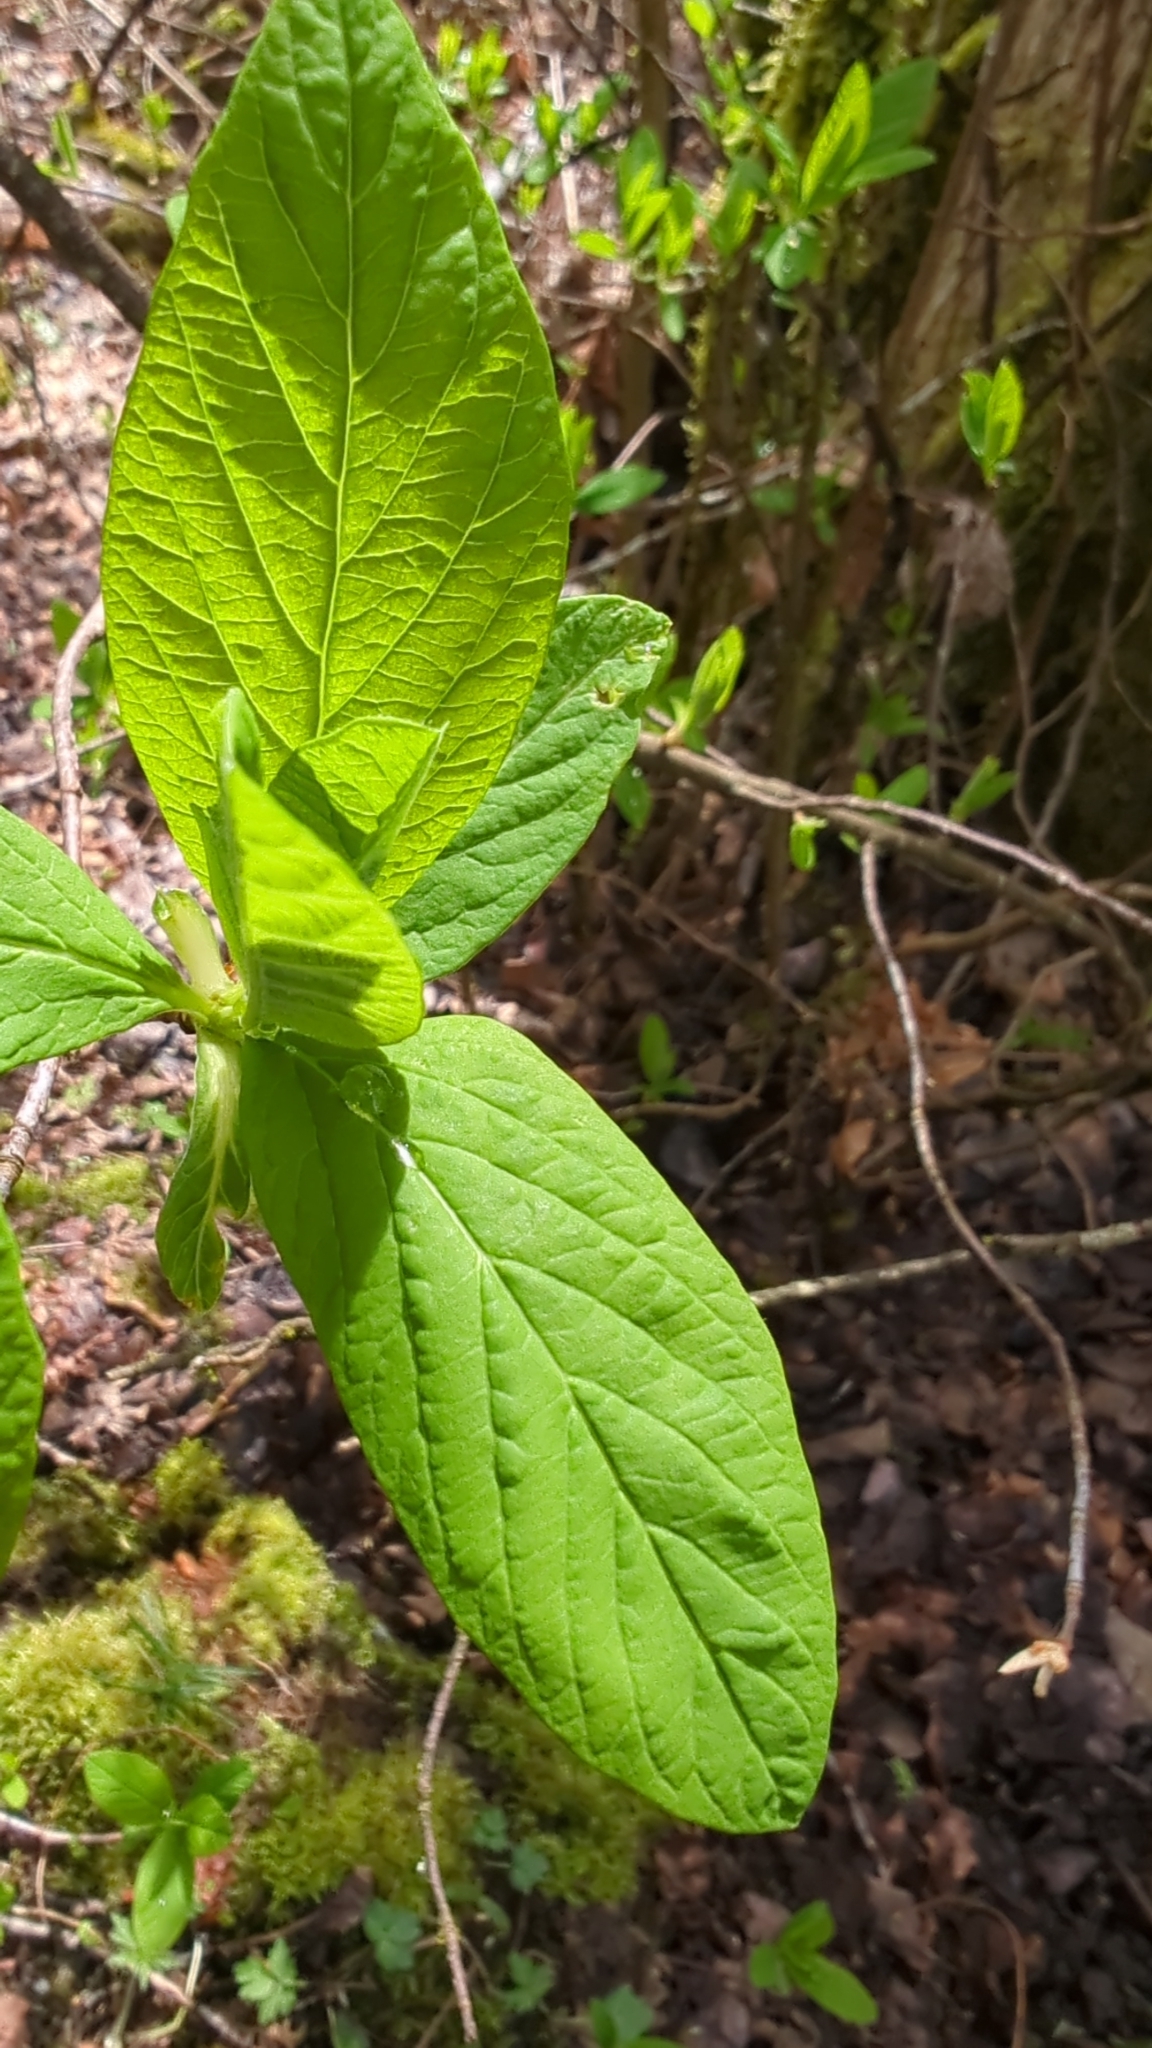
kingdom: Plantae
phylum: Tracheophyta
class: Magnoliopsida
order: Rosales
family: Rosaceae
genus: Oemleria
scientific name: Oemleria cerasiformis
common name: Osoberry
